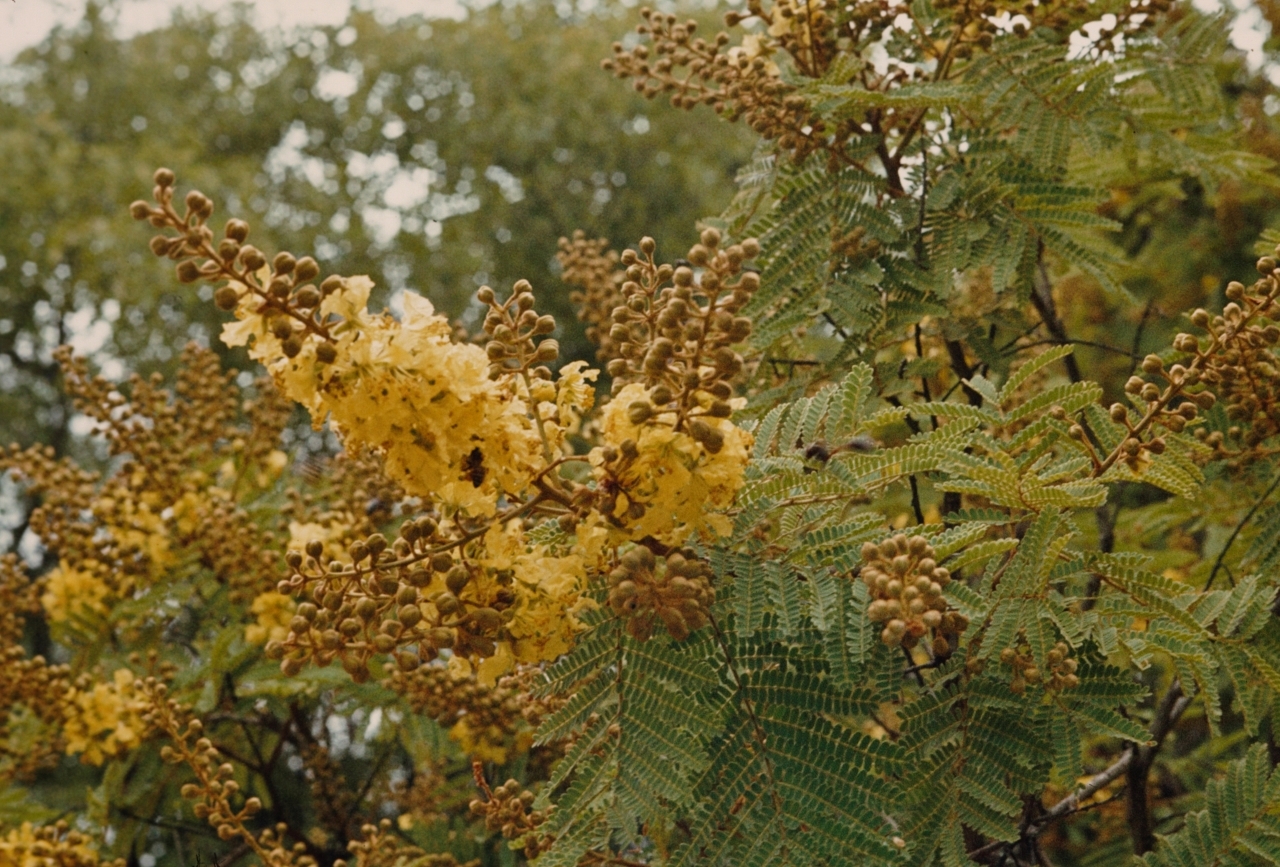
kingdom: Plantae
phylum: Tracheophyta
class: Magnoliopsida
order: Fabales
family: Fabaceae
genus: Peltophorum
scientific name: Peltophorum africanum
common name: African black wattle
